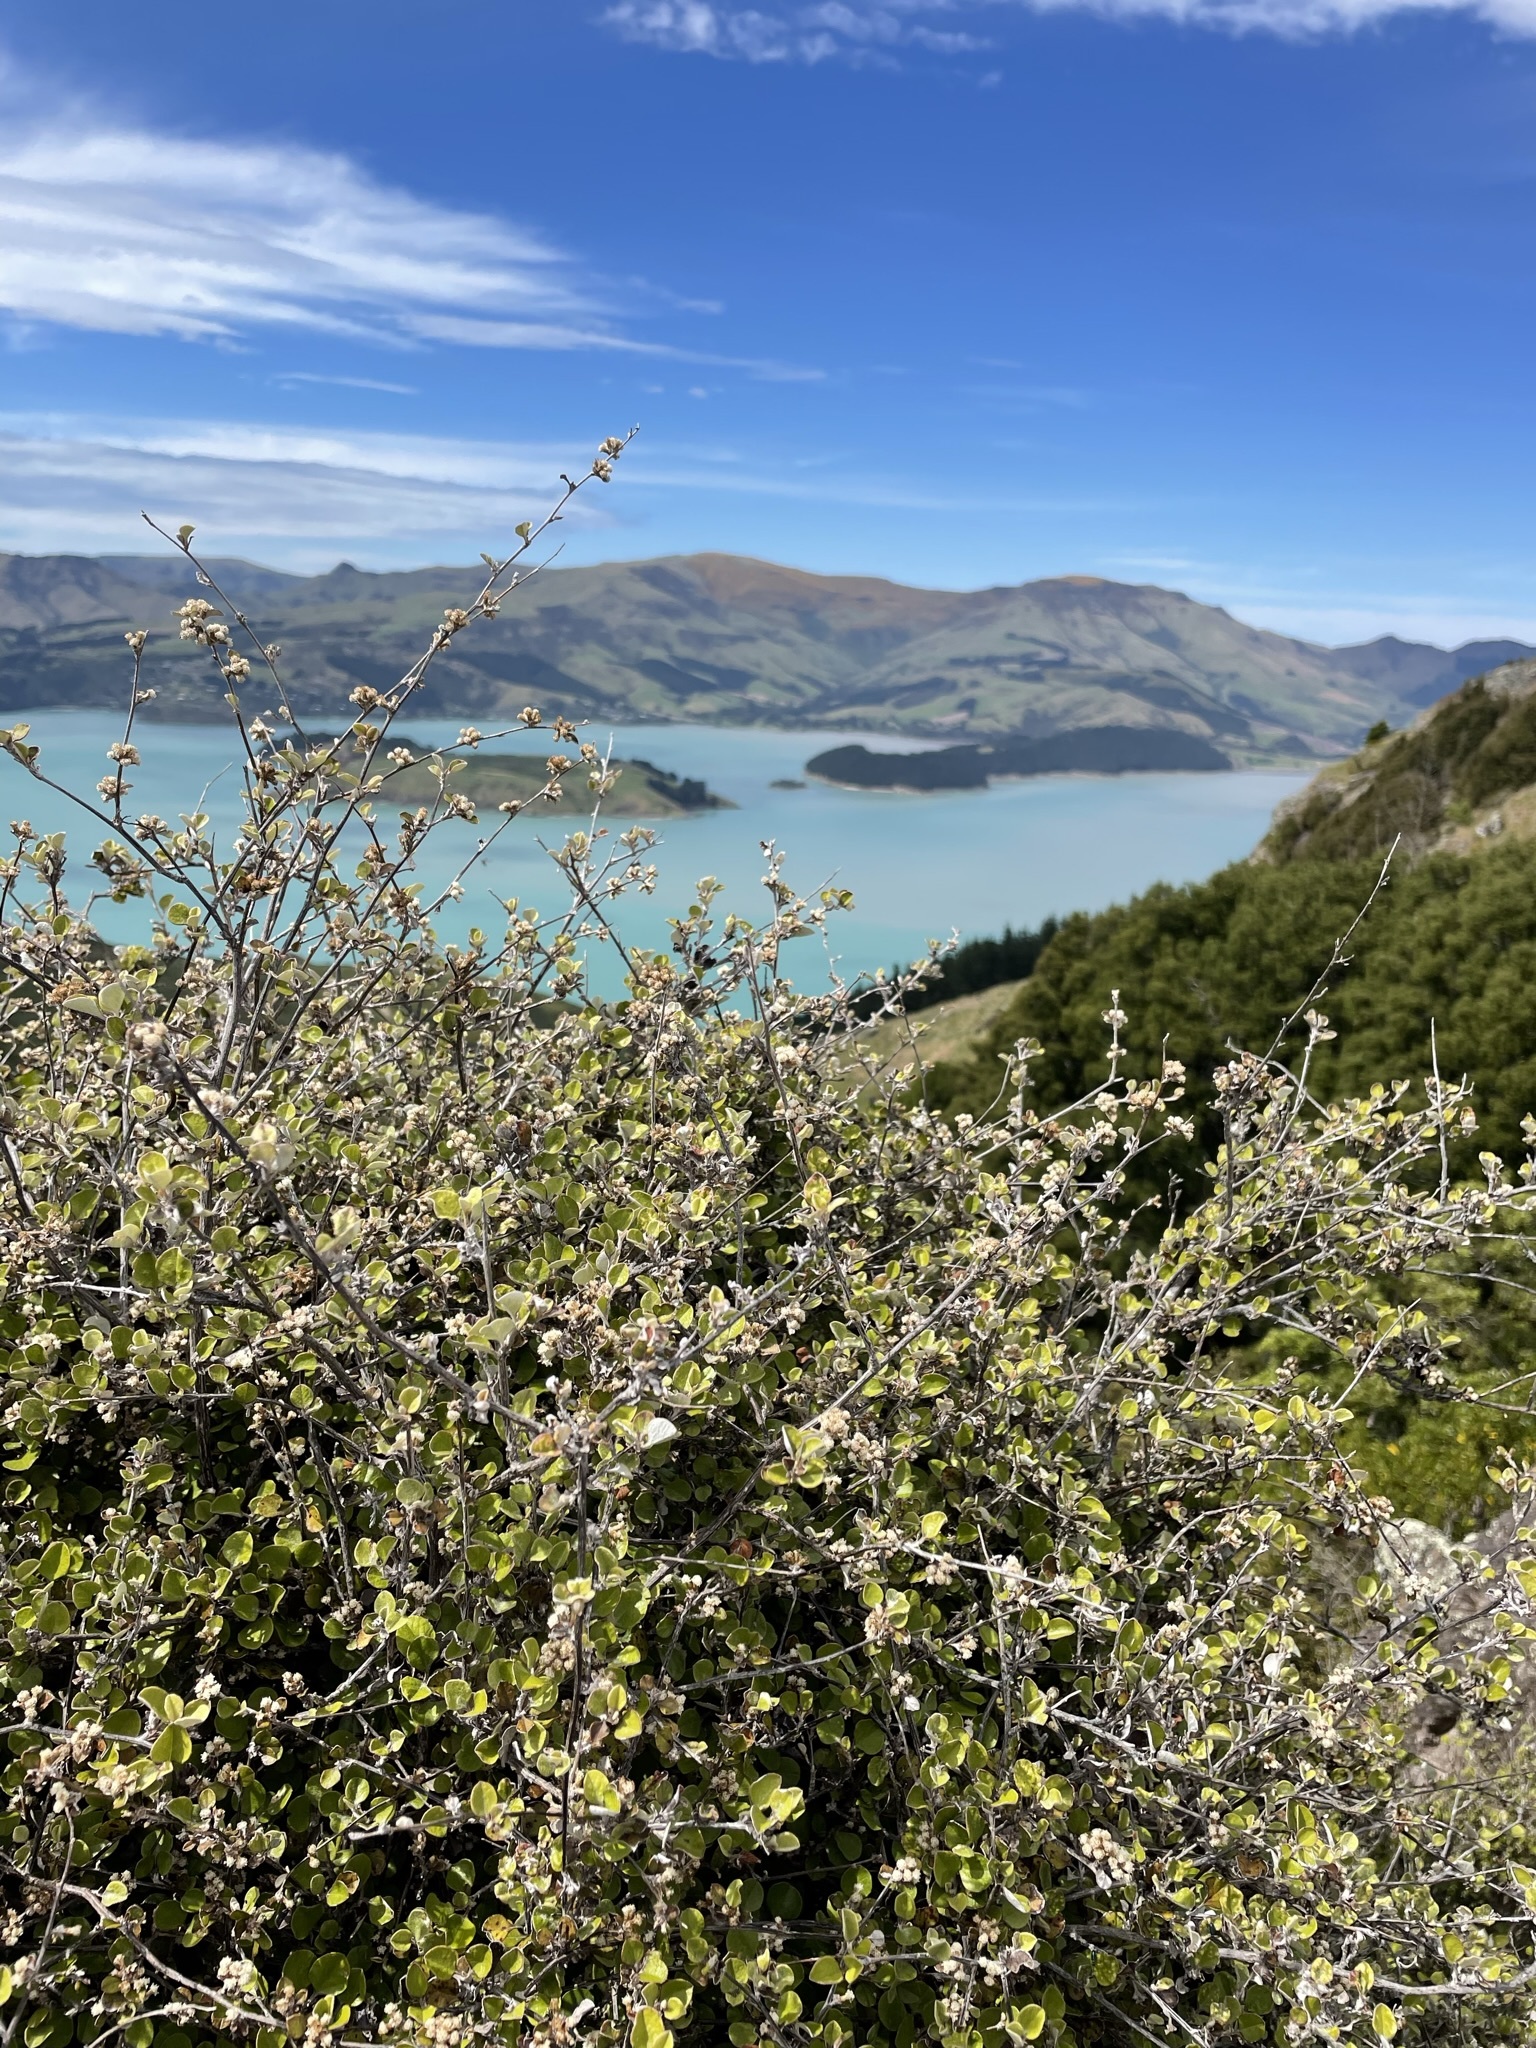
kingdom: Plantae
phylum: Tracheophyta
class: Magnoliopsida
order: Asterales
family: Asteraceae
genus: Ozothamnus
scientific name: Ozothamnus glomeratus
